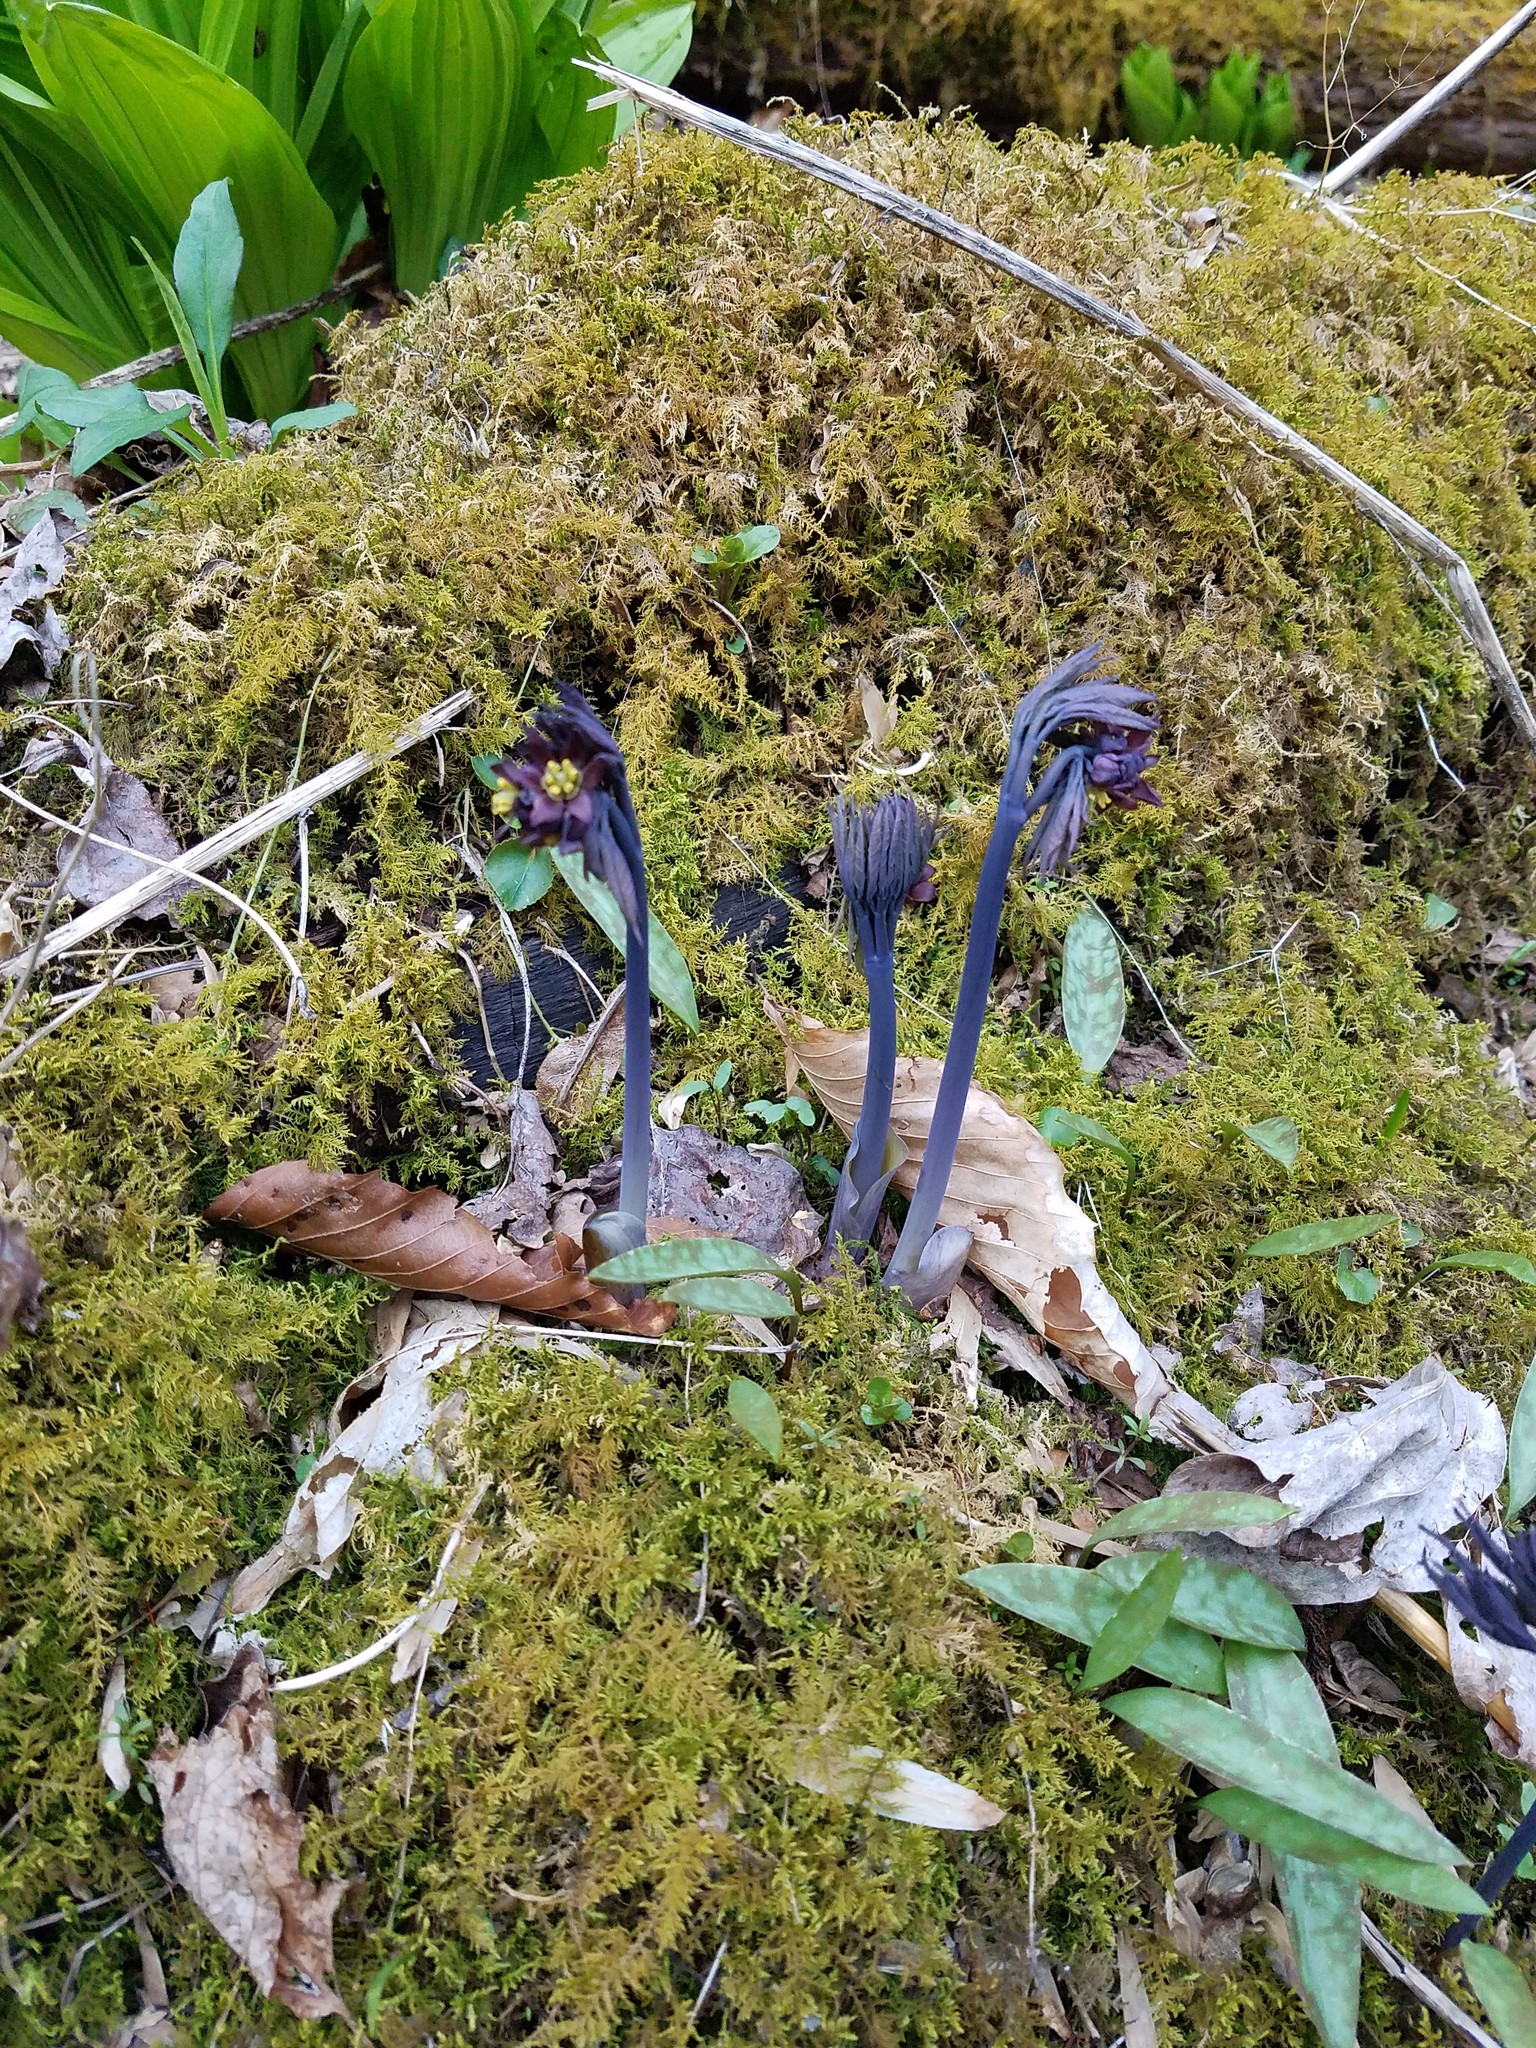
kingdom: Plantae
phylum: Tracheophyta
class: Magnoliopsida
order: Ranunculales
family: Berberidaceae
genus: Caulophyllum
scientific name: Caulophyllum giganteum
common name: Blue cohosh
